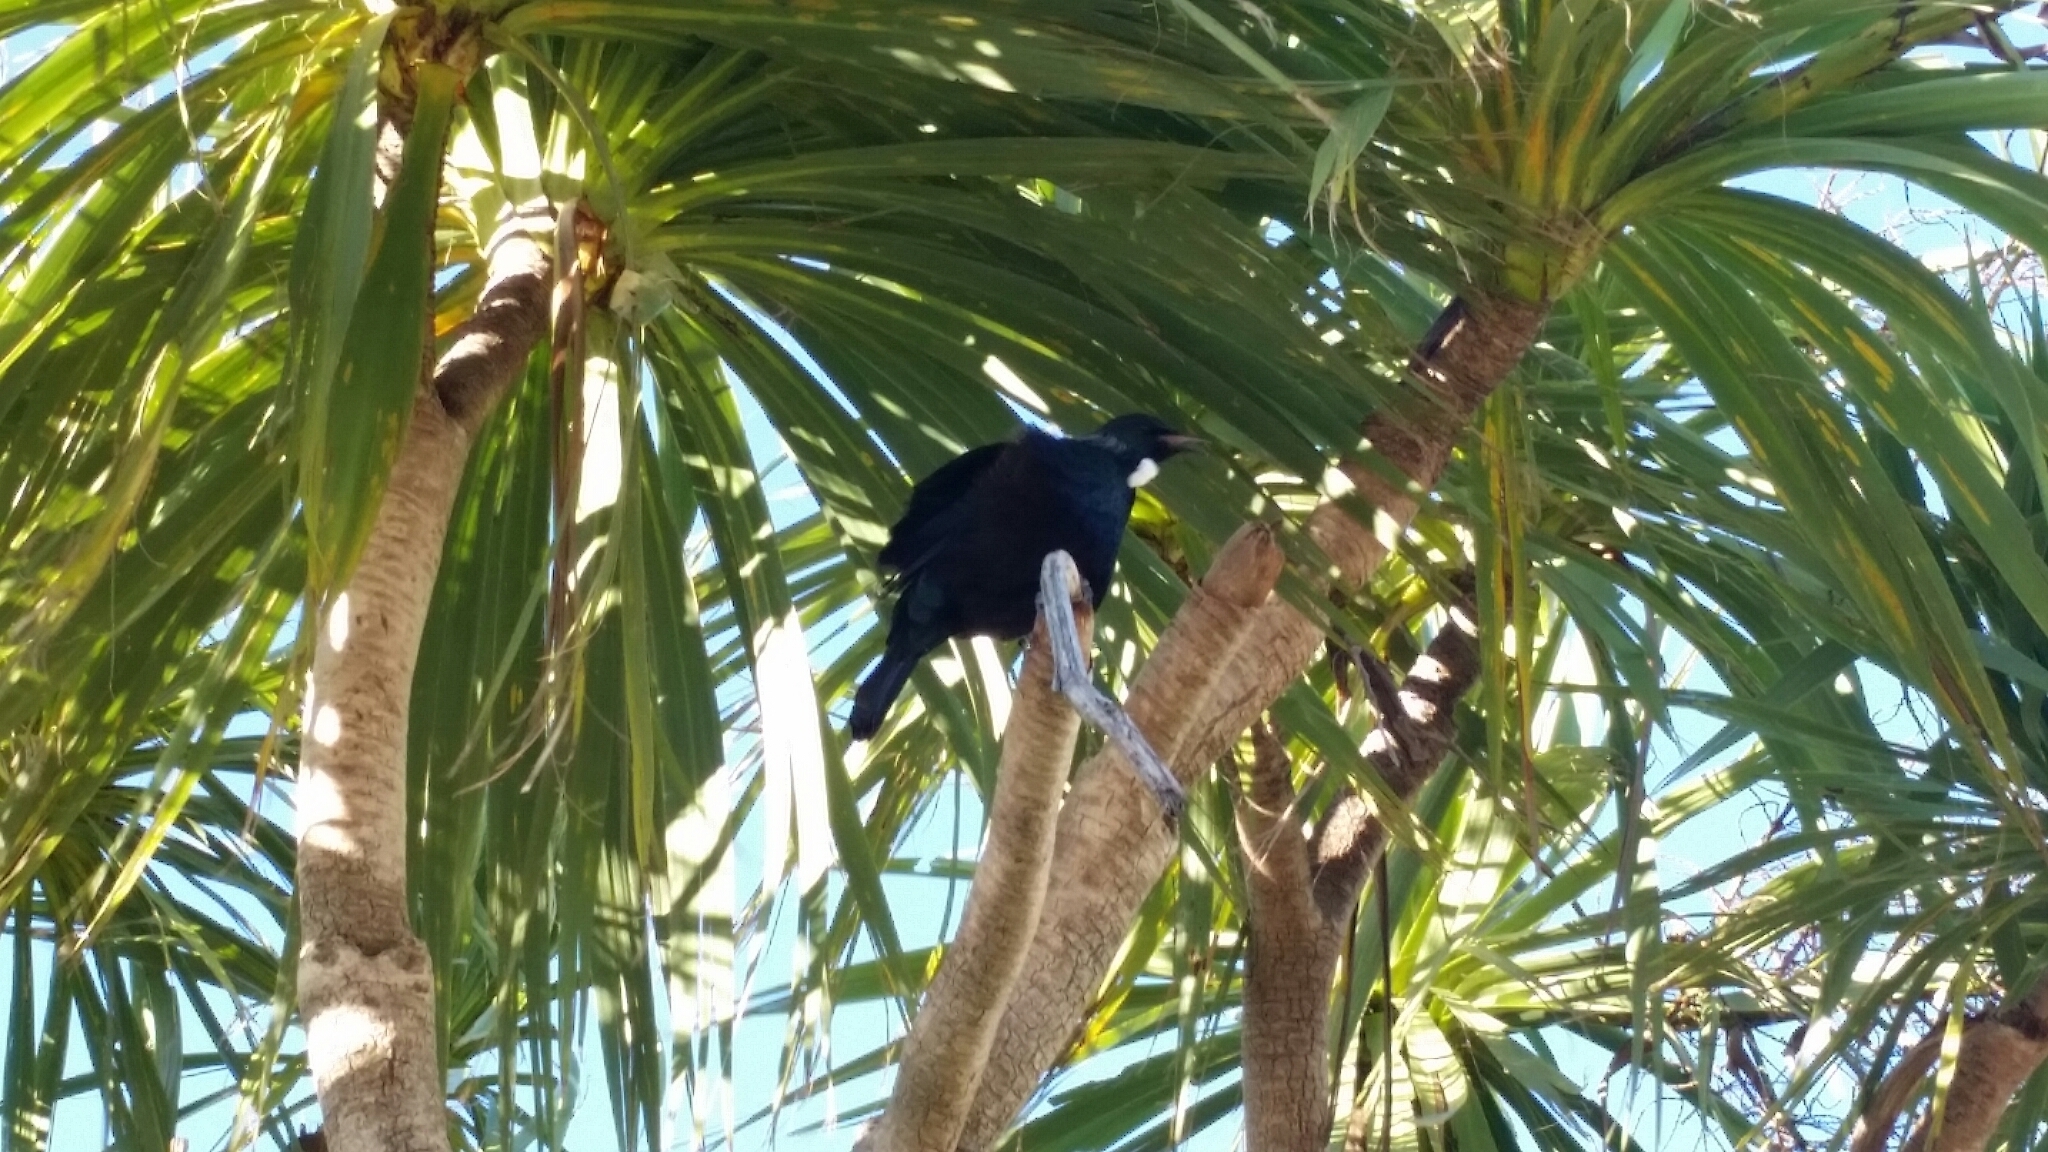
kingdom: Animalia
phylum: Chordata
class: Aves
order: Passeriformes
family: Meliphagidae
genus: Prosthemadera
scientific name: Prosthemadera novaeseelandiae
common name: Tui
